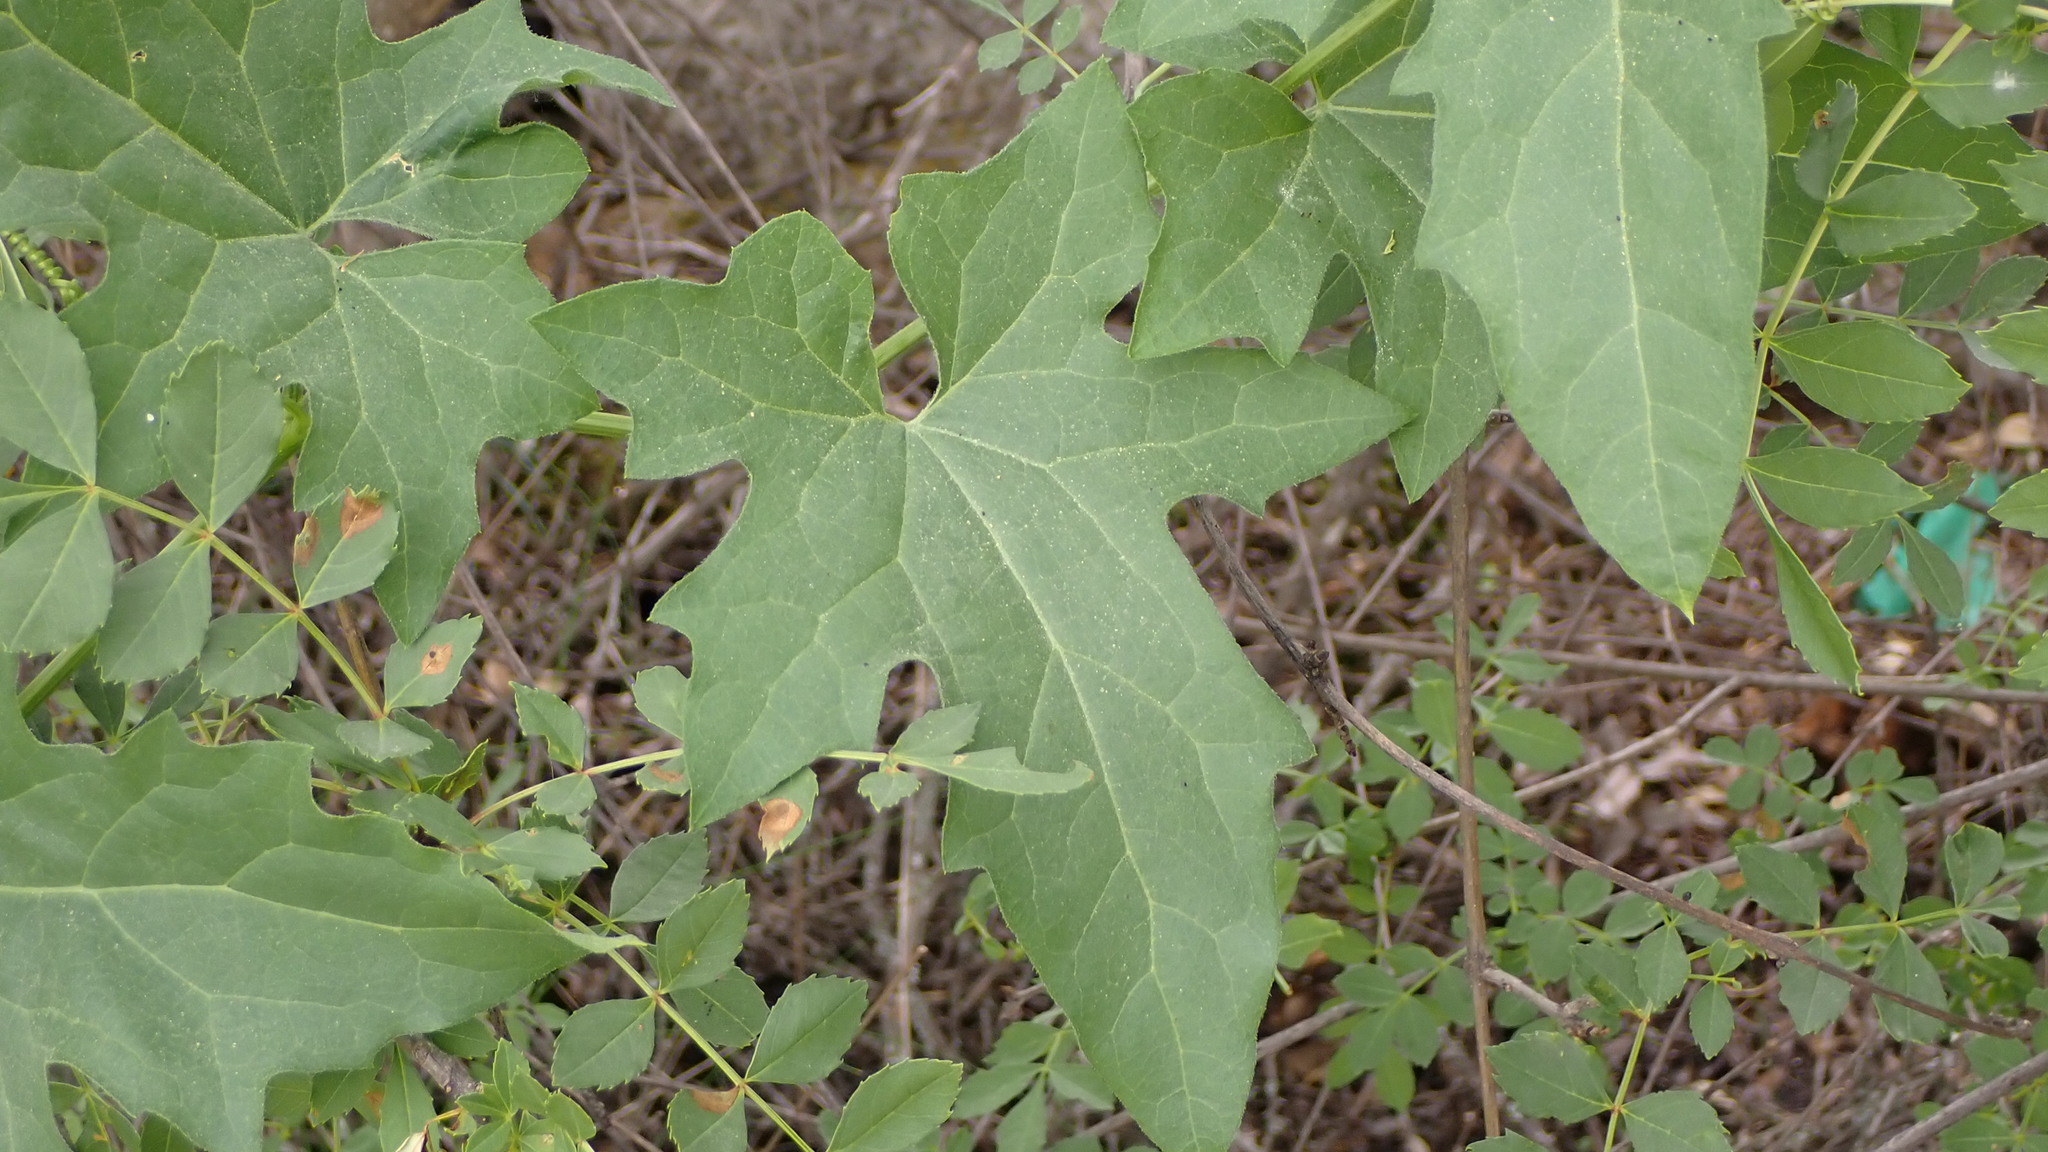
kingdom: Plantae
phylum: Tracheophyta
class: Magnoliopsida
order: Cucurbitales
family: Cucurbitaceae
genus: Bryonia
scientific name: Bryonia cretica
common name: Cretan bryony
